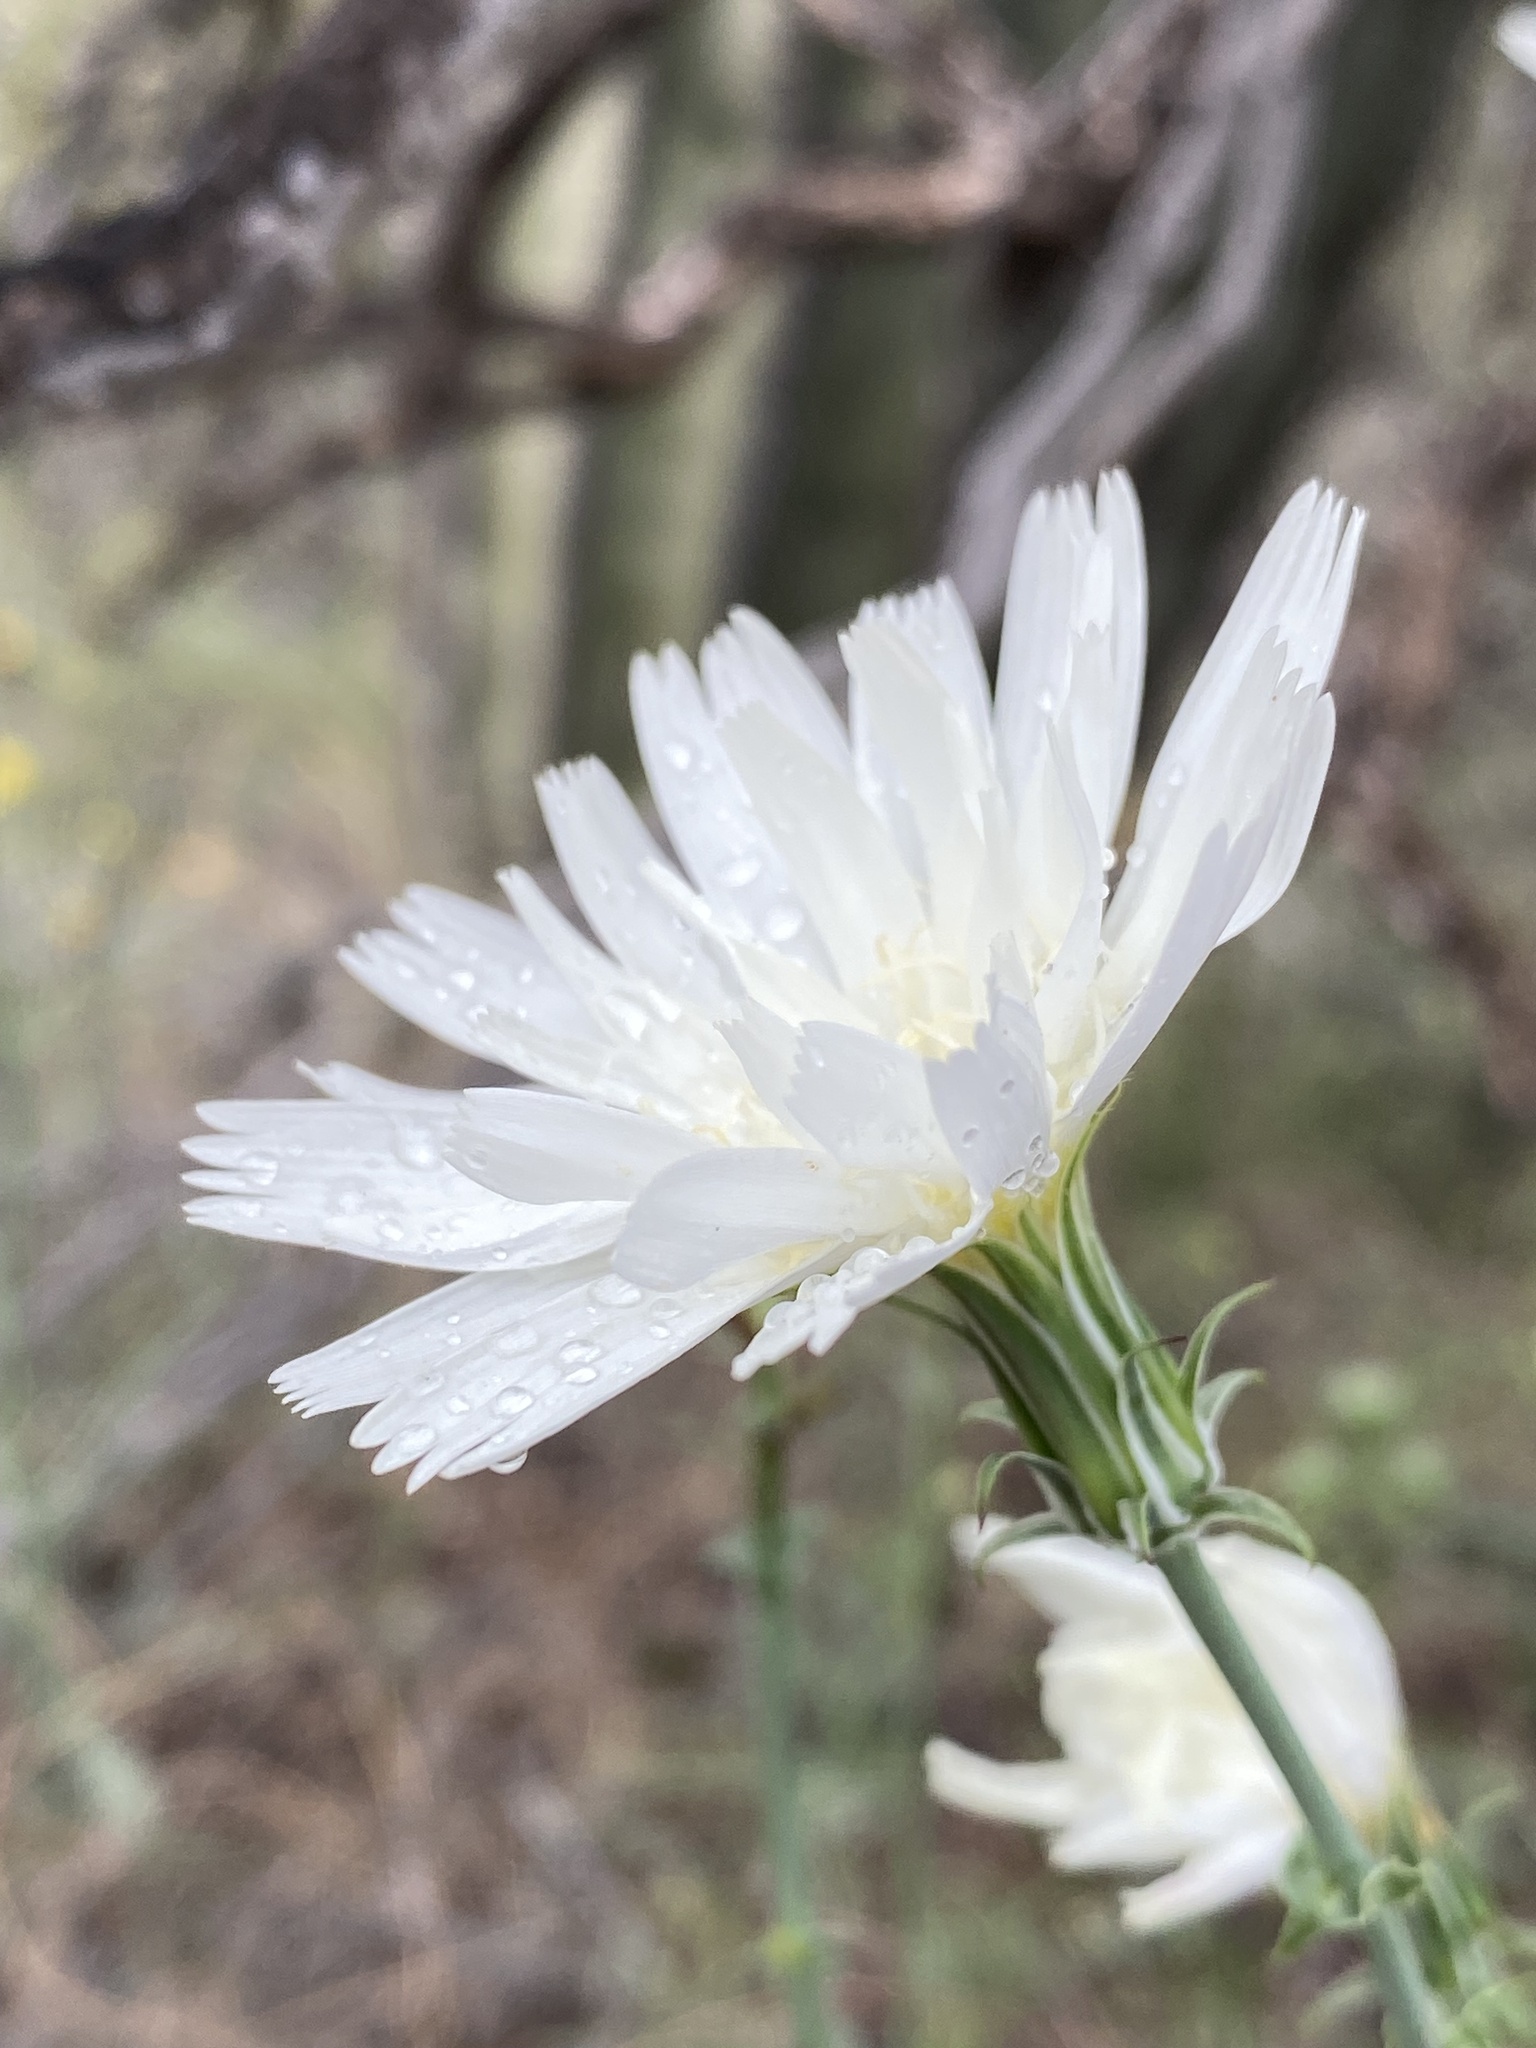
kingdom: Plantae
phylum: Tracheophyta
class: Magnoliopsida
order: Asterales
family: Asteraceae
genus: Rafinesquia
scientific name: Rafinesquia neomexicana
